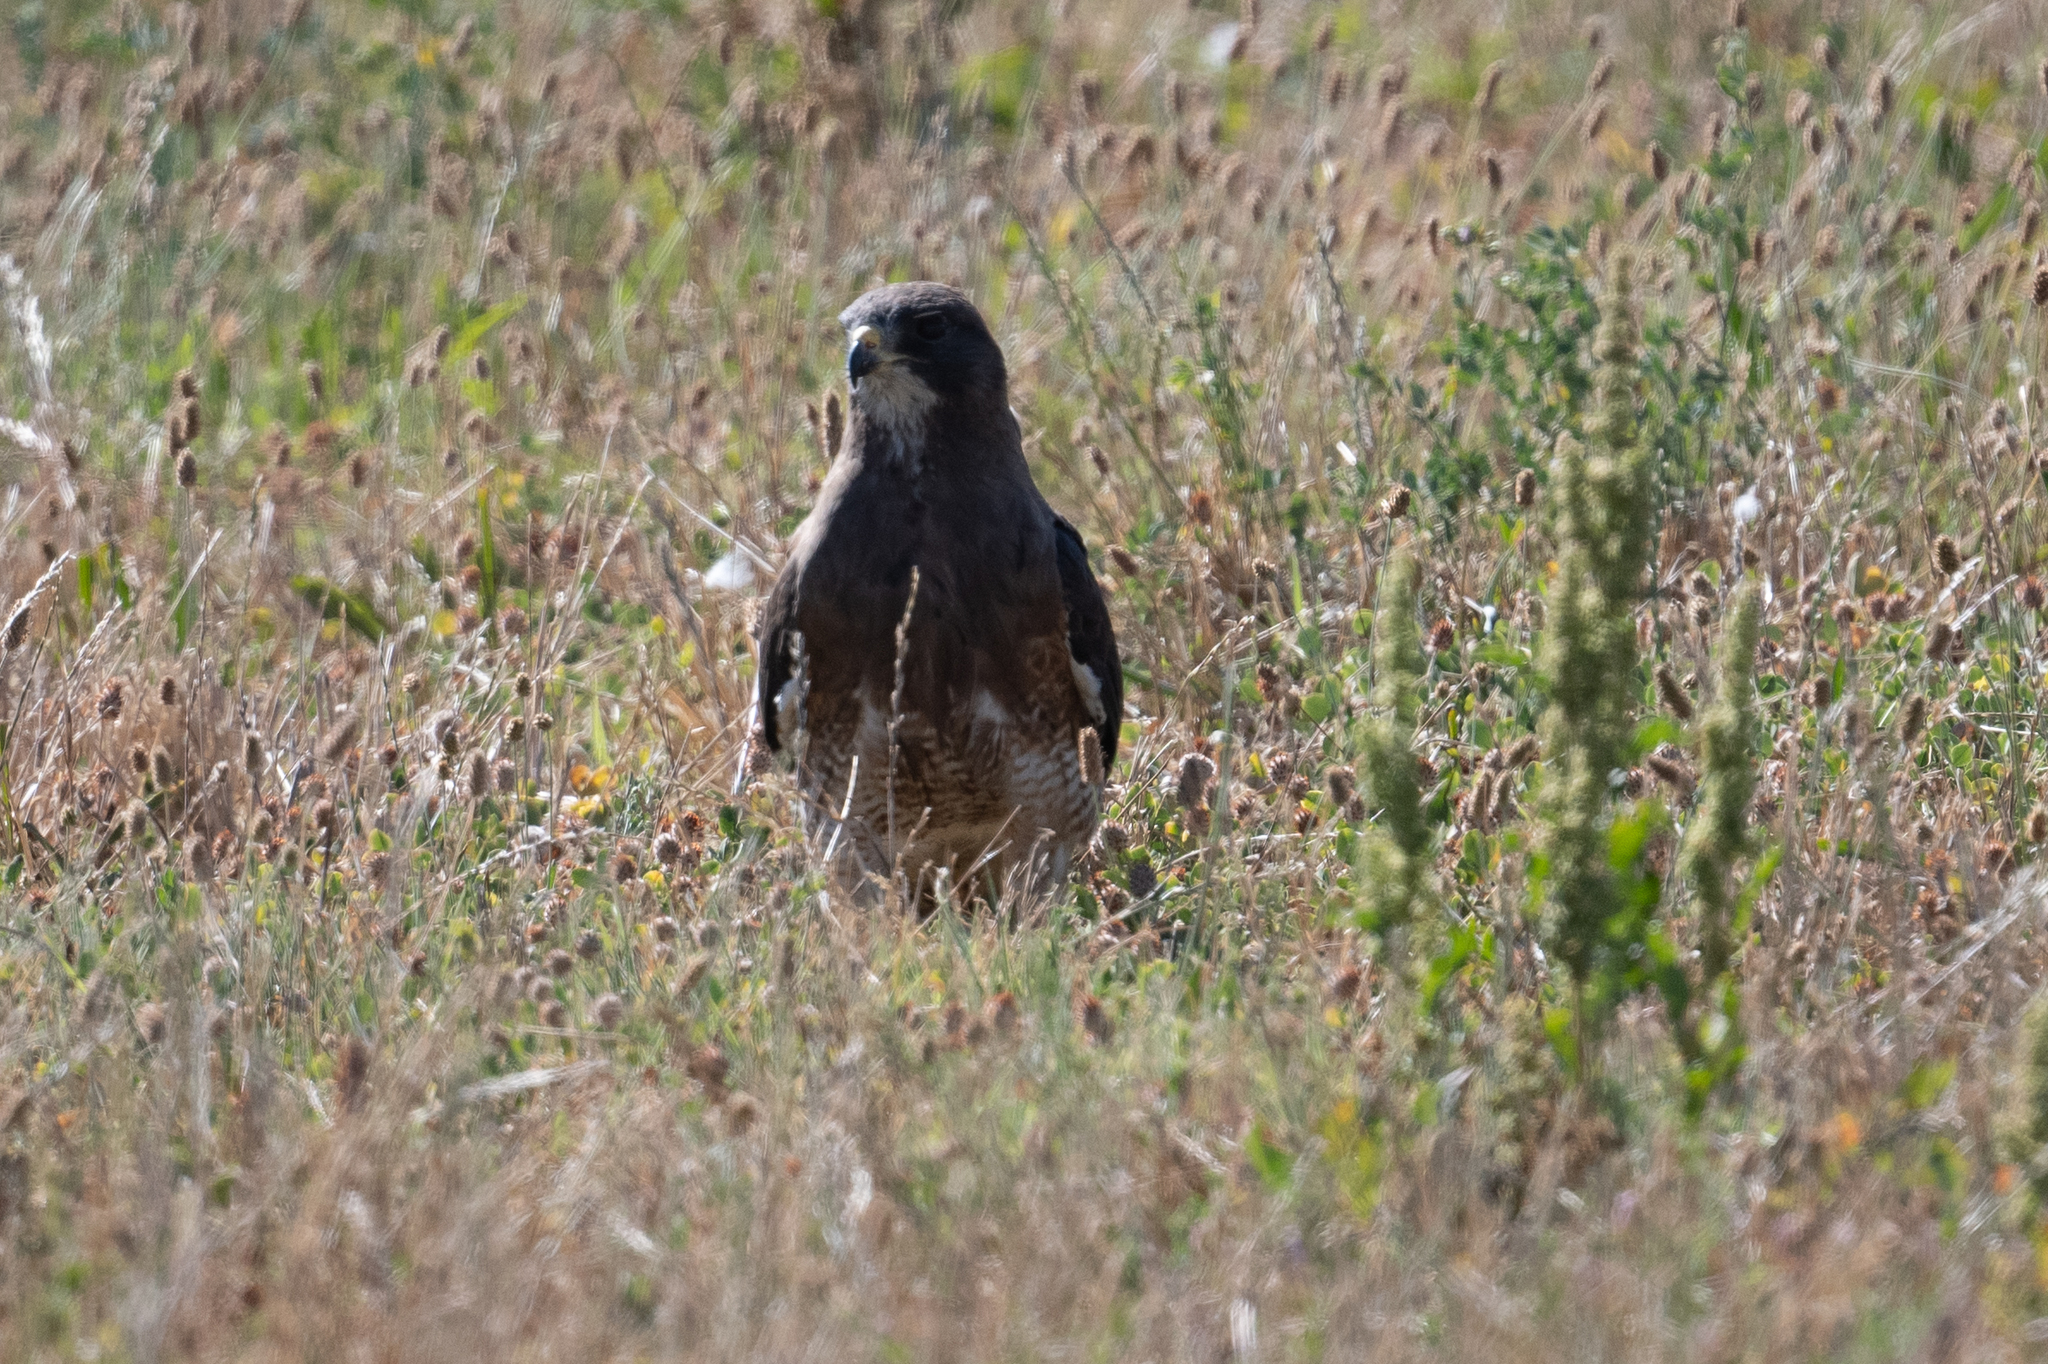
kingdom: Animalia
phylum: Chordata
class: Aves
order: Accipitriformes
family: Accipitridae
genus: Buteo
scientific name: Buteo swainsoni
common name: Swainson's hawk
